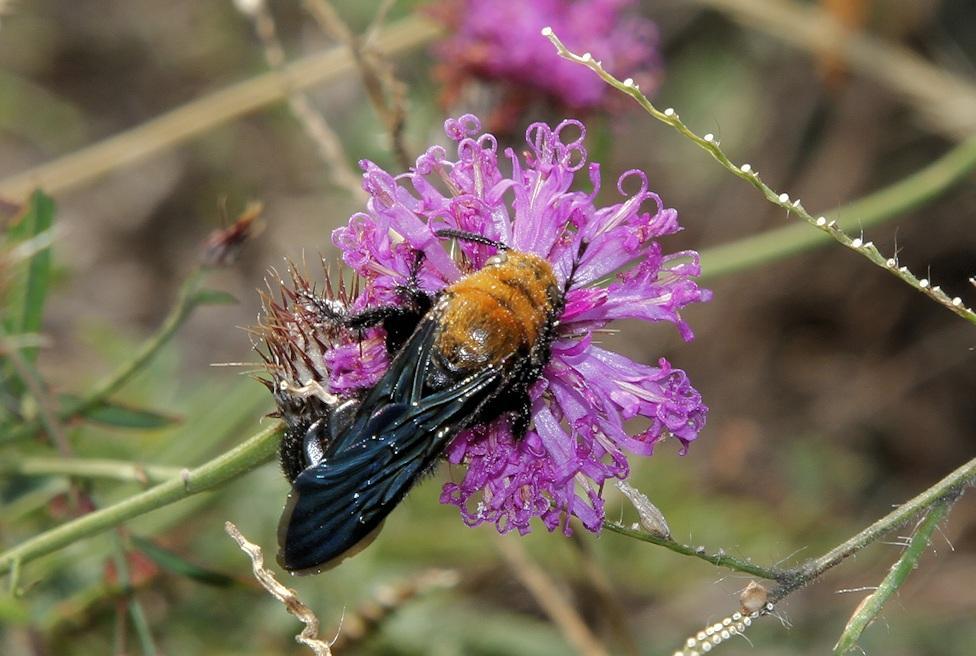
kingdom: Animalia
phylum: Arthropoda
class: Insecta
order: Hymenoptera
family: Scoliidae
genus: Campsomeriella
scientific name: Campsomeriella caelebs
